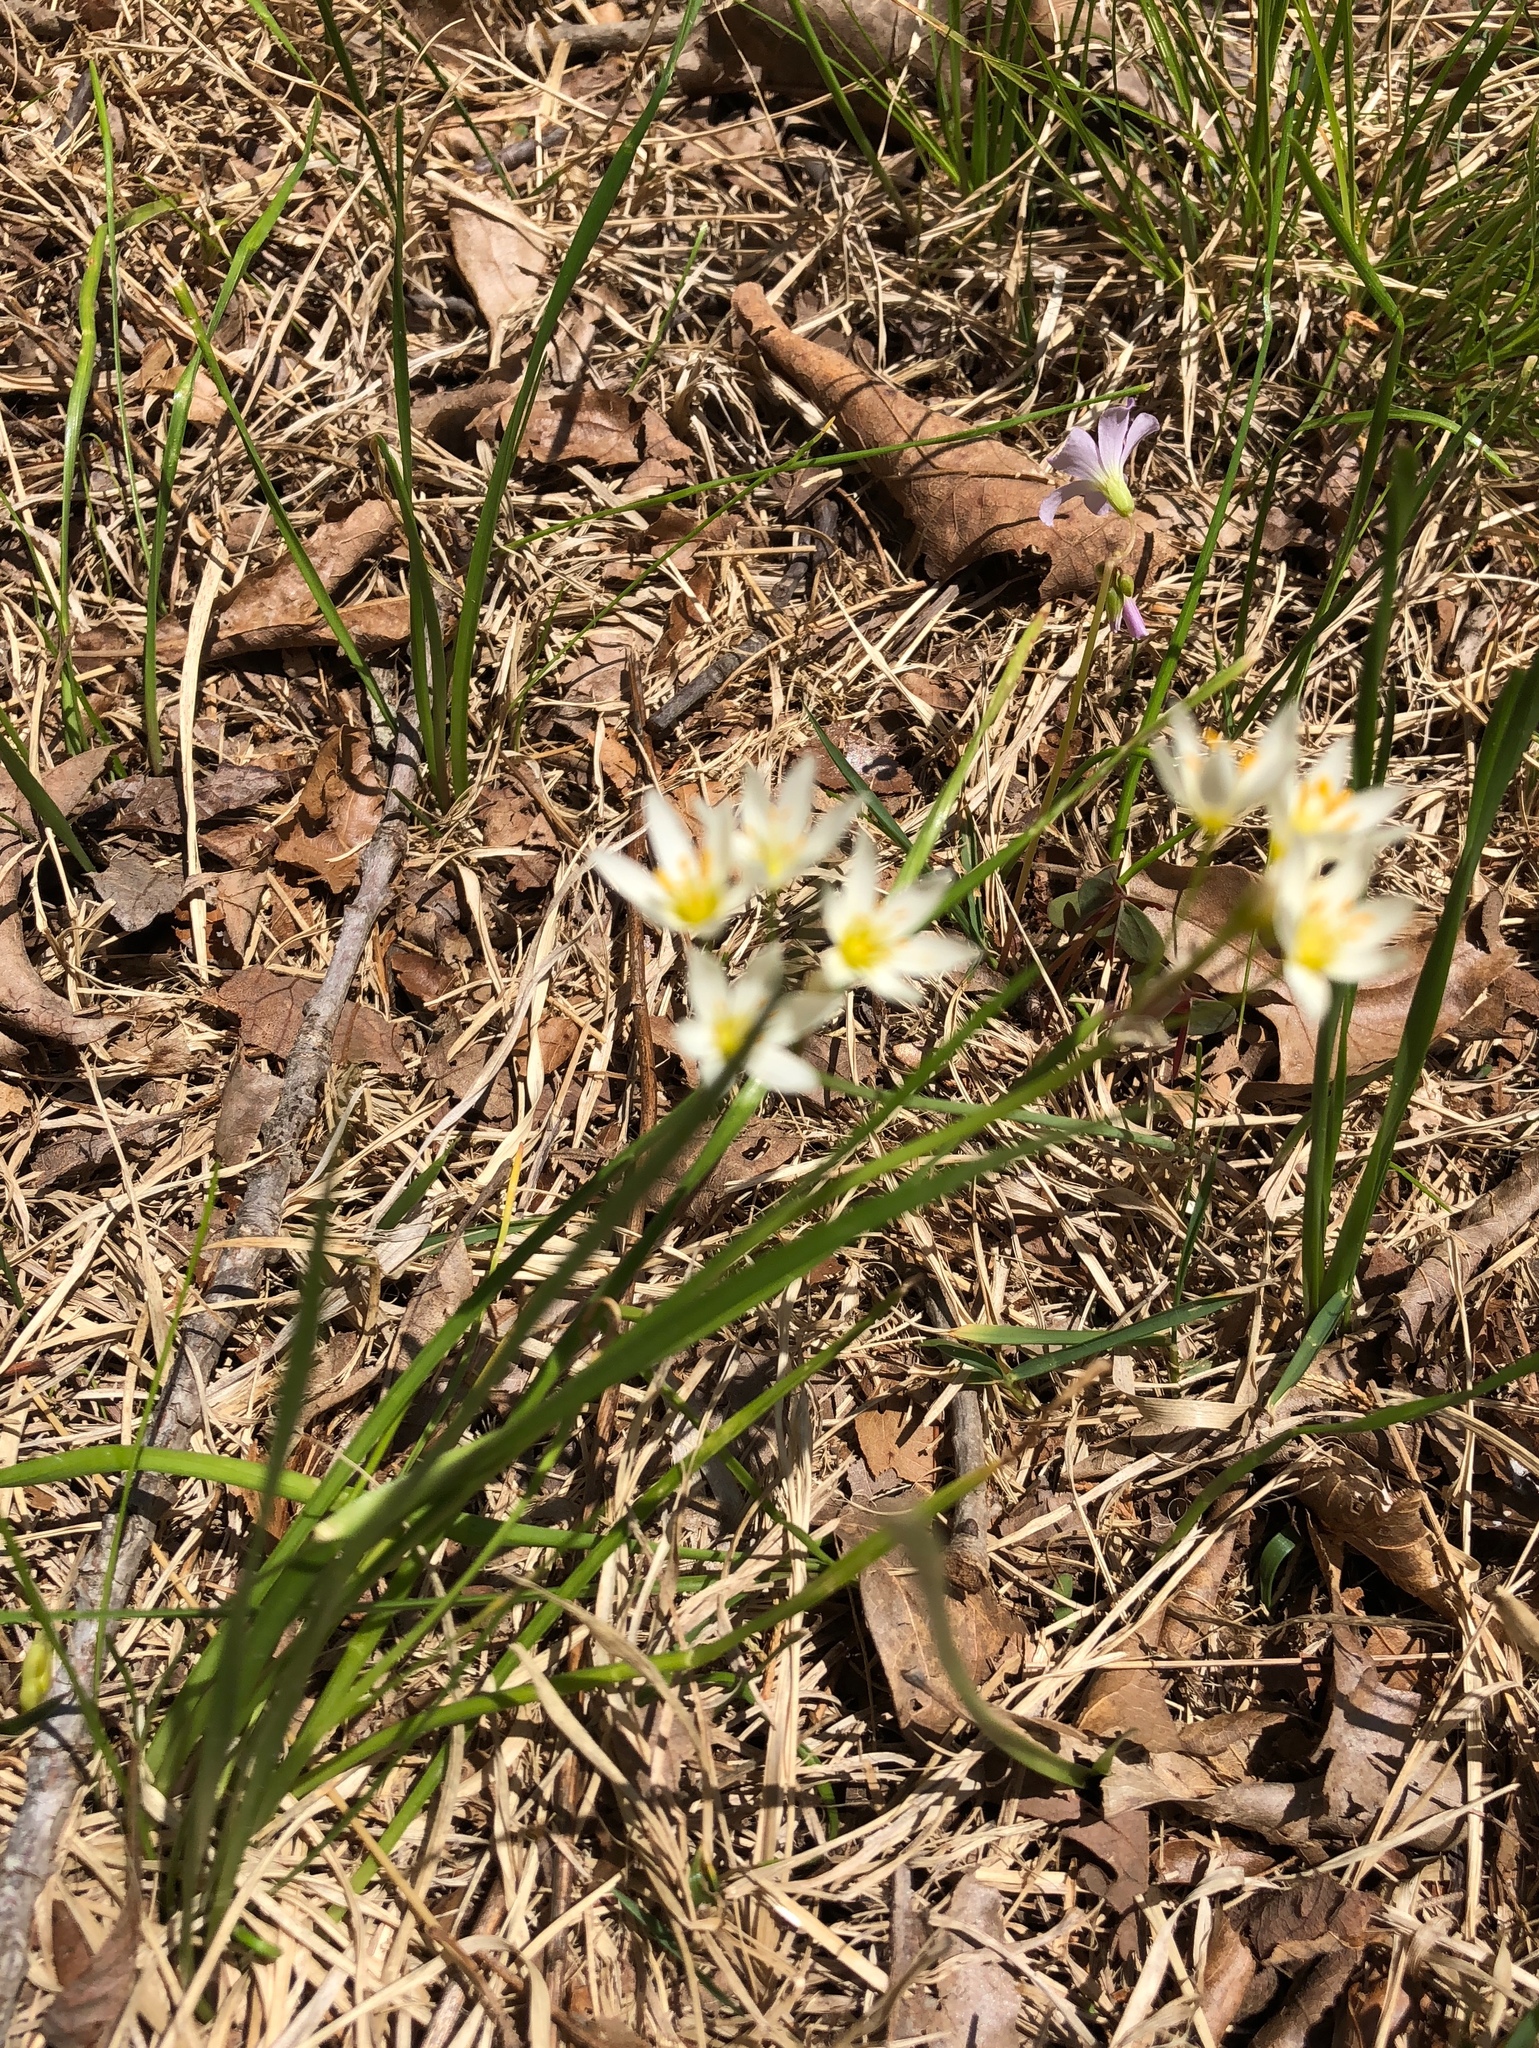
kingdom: Plantae
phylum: Tracheophyta
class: Liliopsida
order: Asparagales
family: Amaryllidaceae
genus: Nothoscordum
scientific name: Nothoscordum bivalve
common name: Crow-poison
